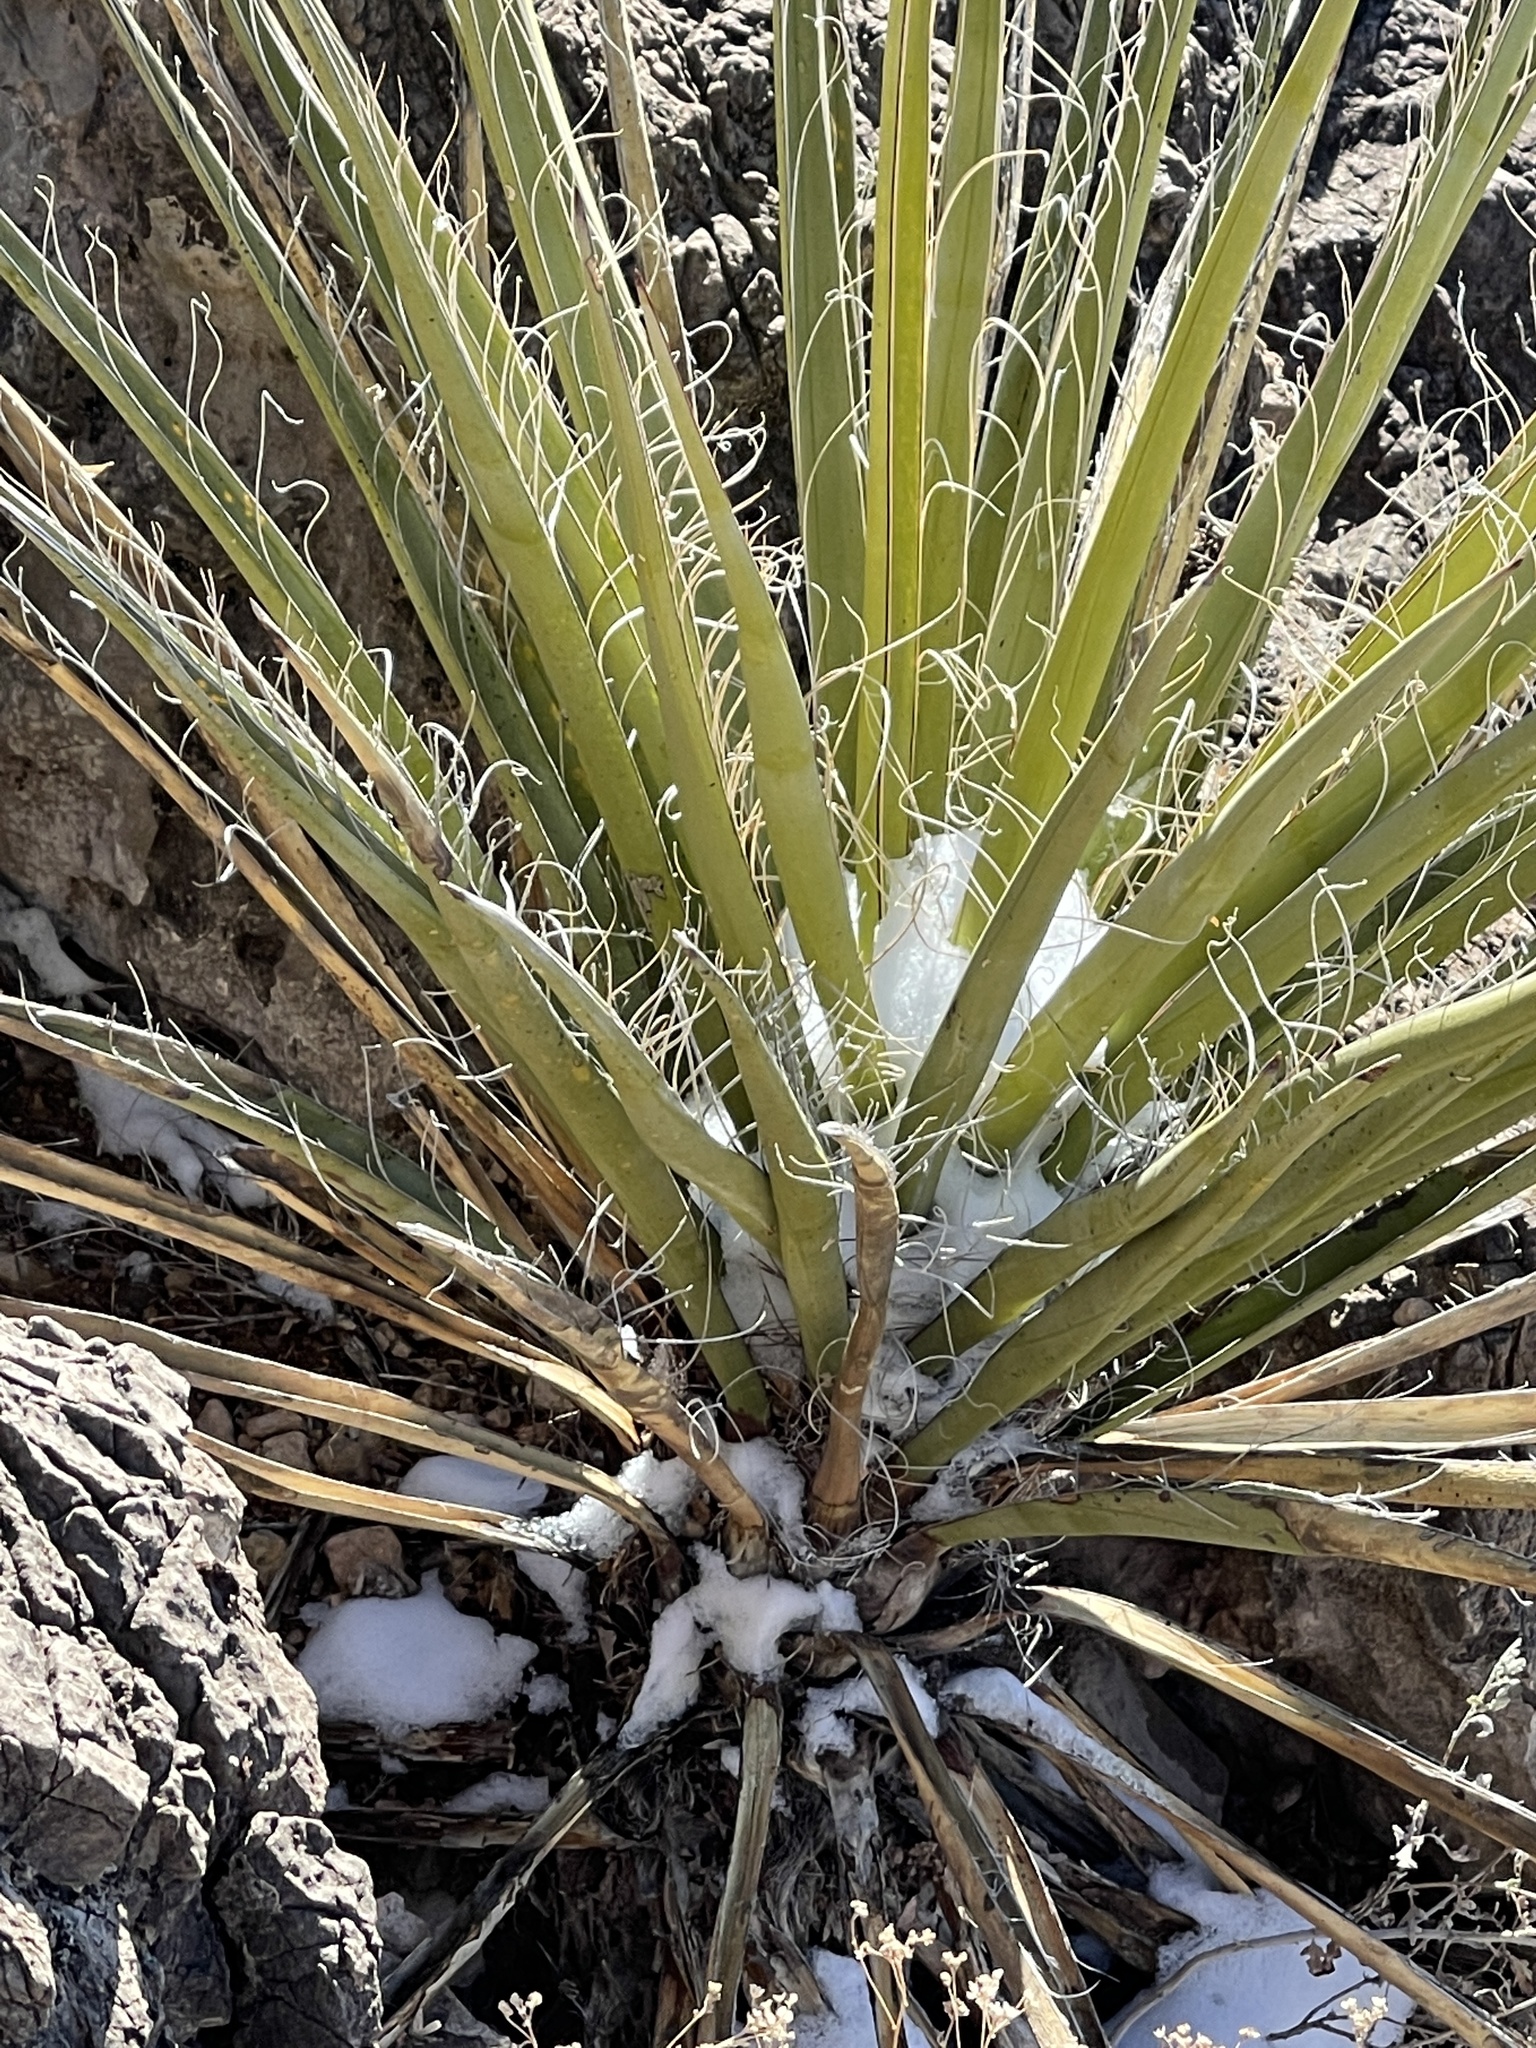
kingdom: Plantae
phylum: Tracheophyta
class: Liliopsida
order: Asparagales
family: Asparagaceae
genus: Yucca
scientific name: Yucca treculiana
